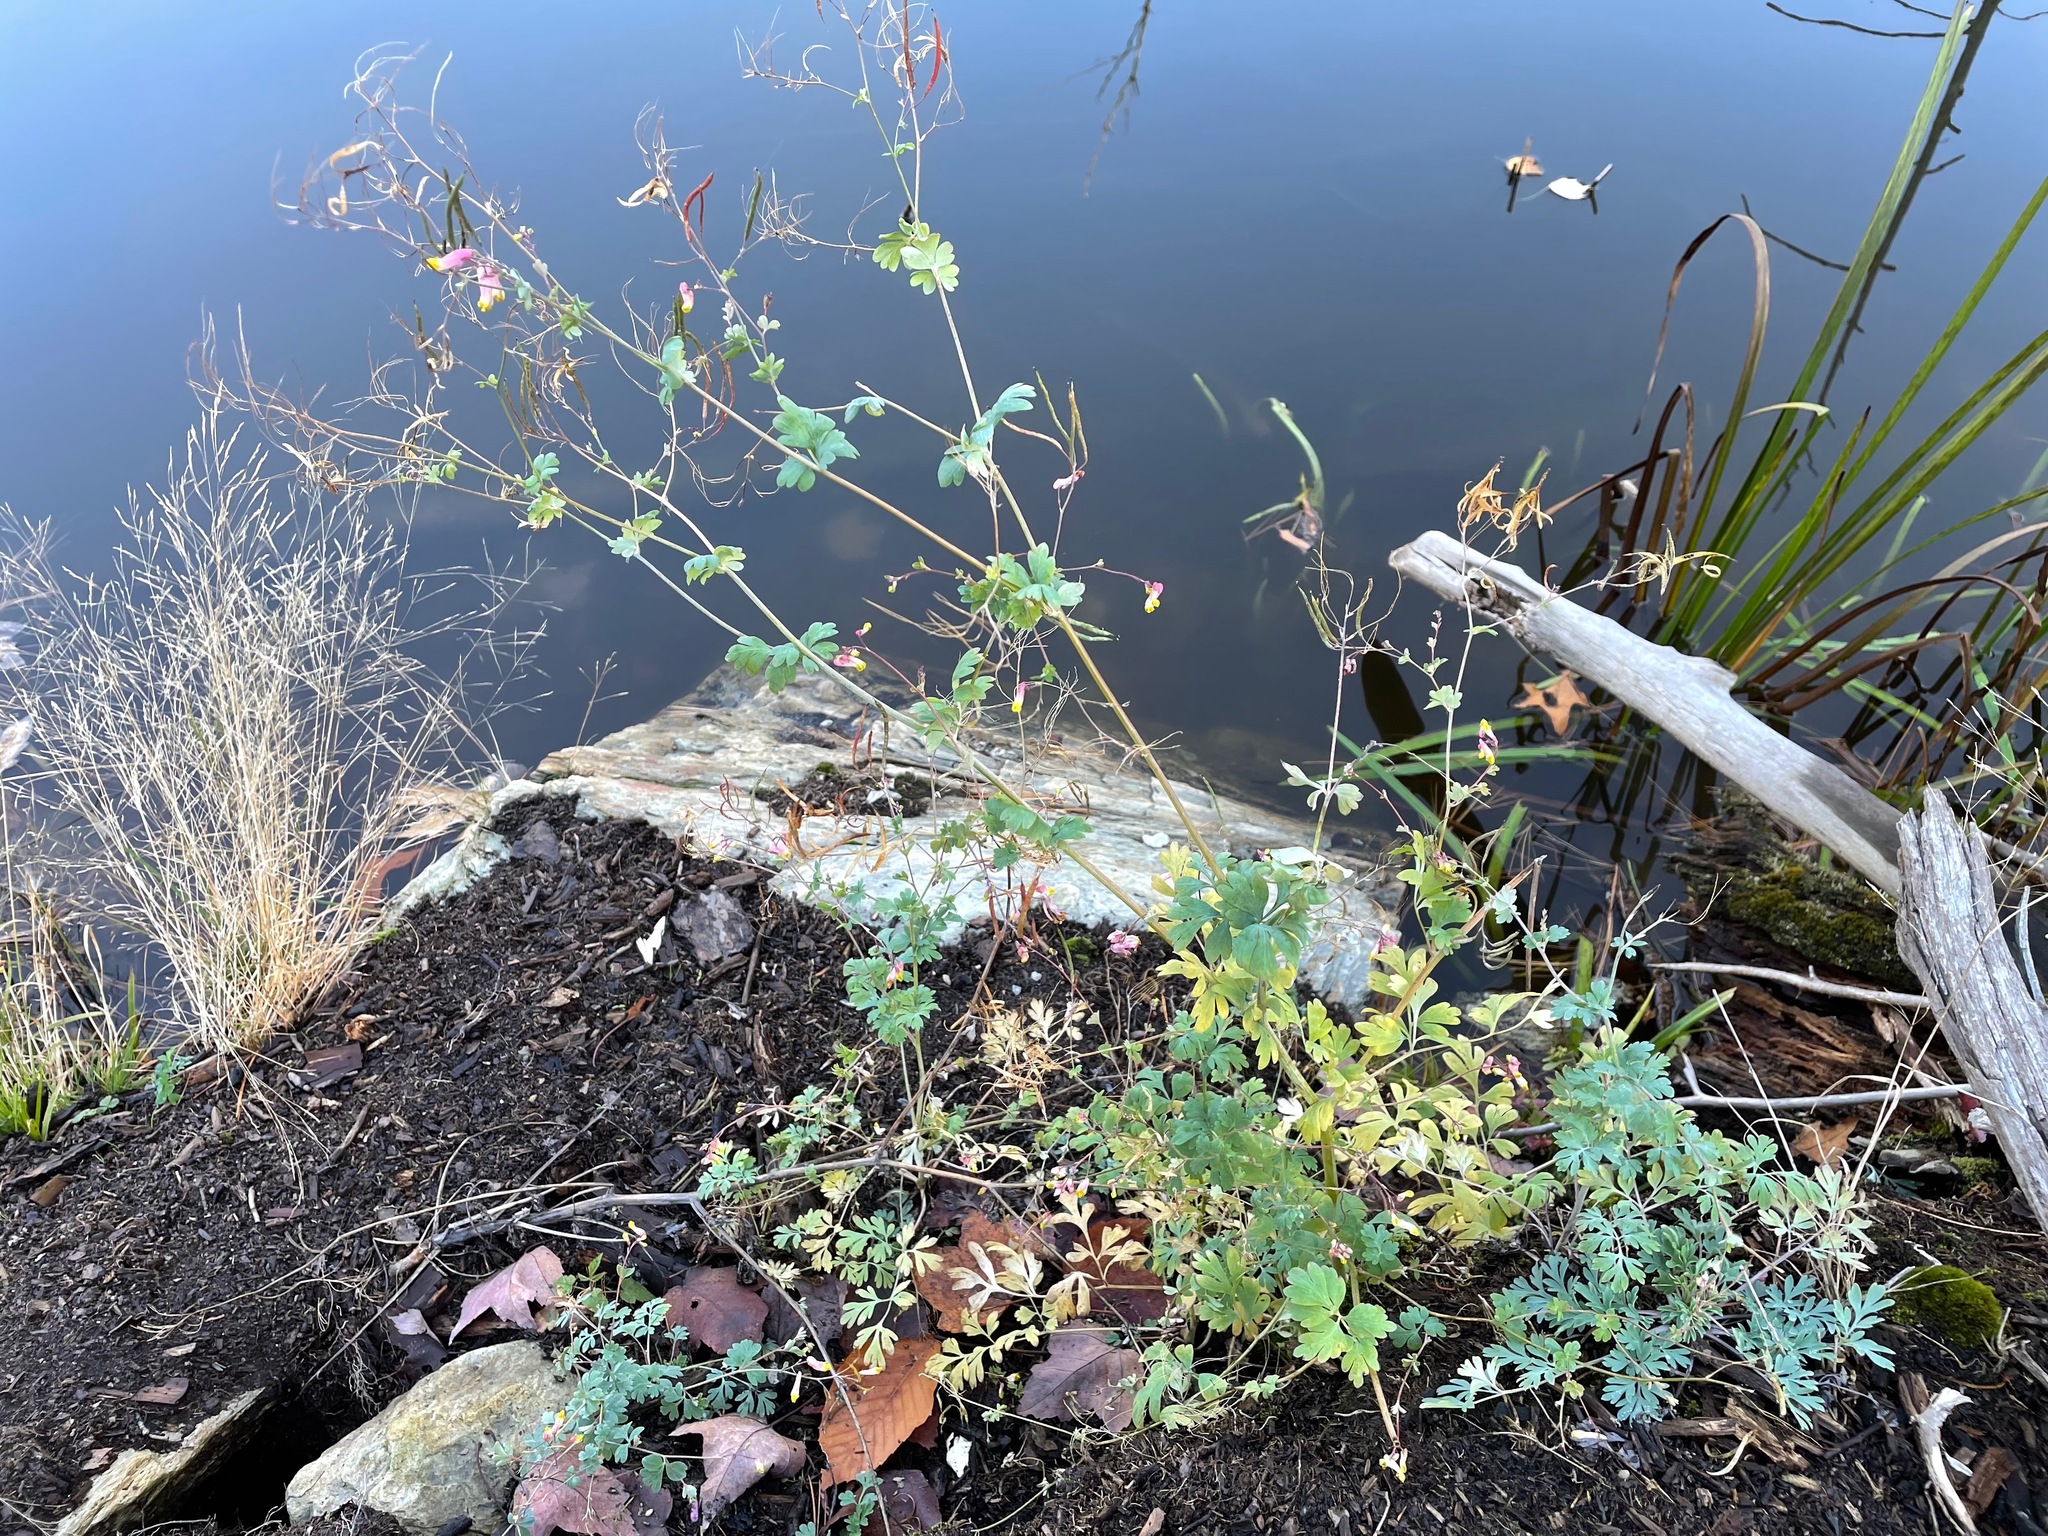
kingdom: Plantae
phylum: Tracheophyta
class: Magnoliopsida
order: Ranunculales
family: Papaveraceae
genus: Capnoides
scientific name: Capnoides sempervirens
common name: Rock harlequin
